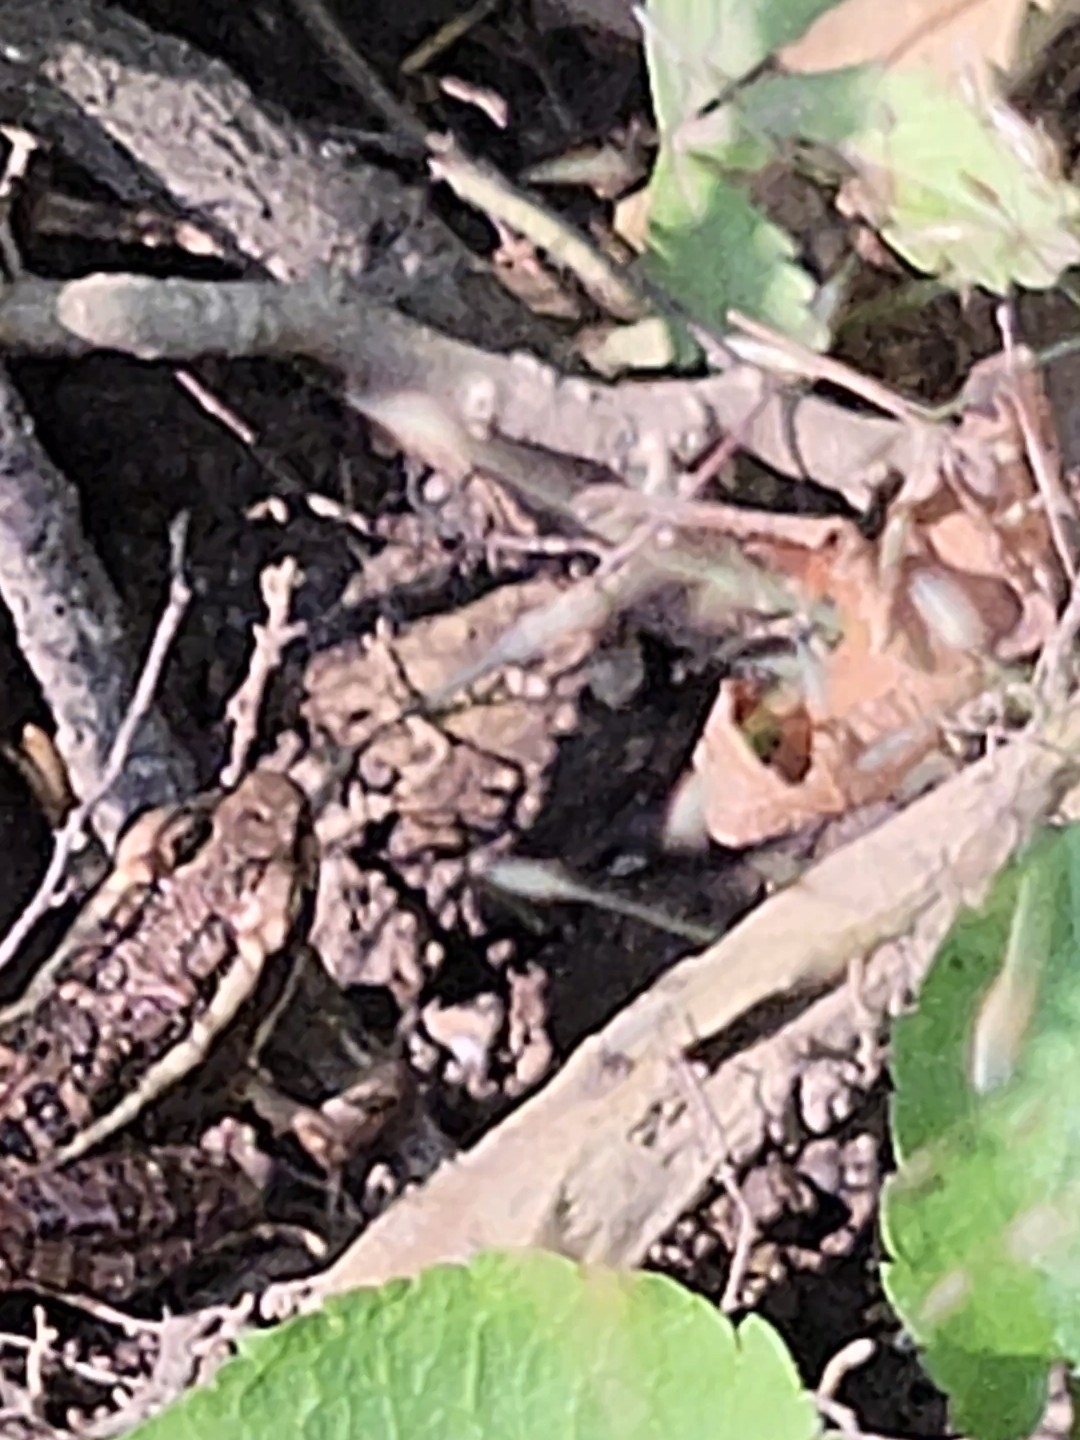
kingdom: Animalia
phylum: Chordata
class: Amphibia
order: Anura
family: Ranidae
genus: Lithobates
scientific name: Lithobates palustris
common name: Pickerel frog
